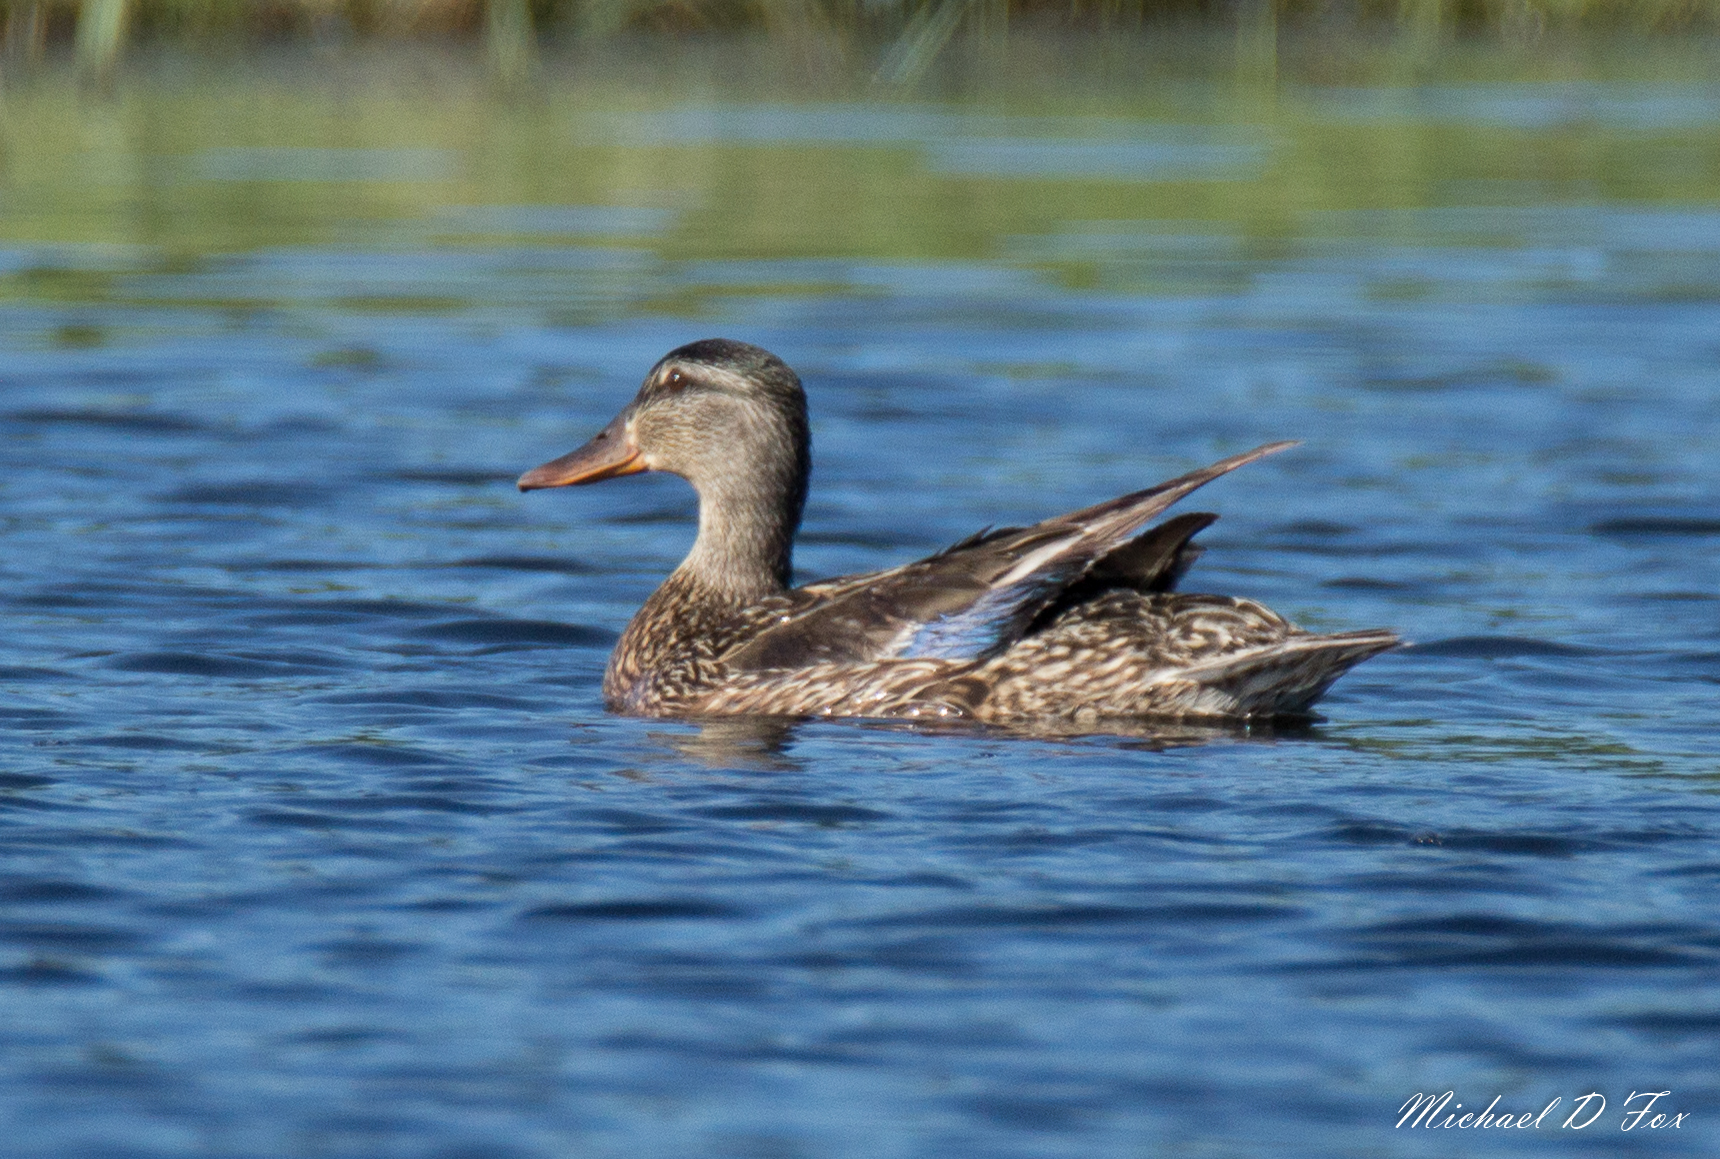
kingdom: Animalia
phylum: Chordata
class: Aves
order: Anseriformes
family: Anatidae
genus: Anas
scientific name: Anas platyrhynchos
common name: Mallard
